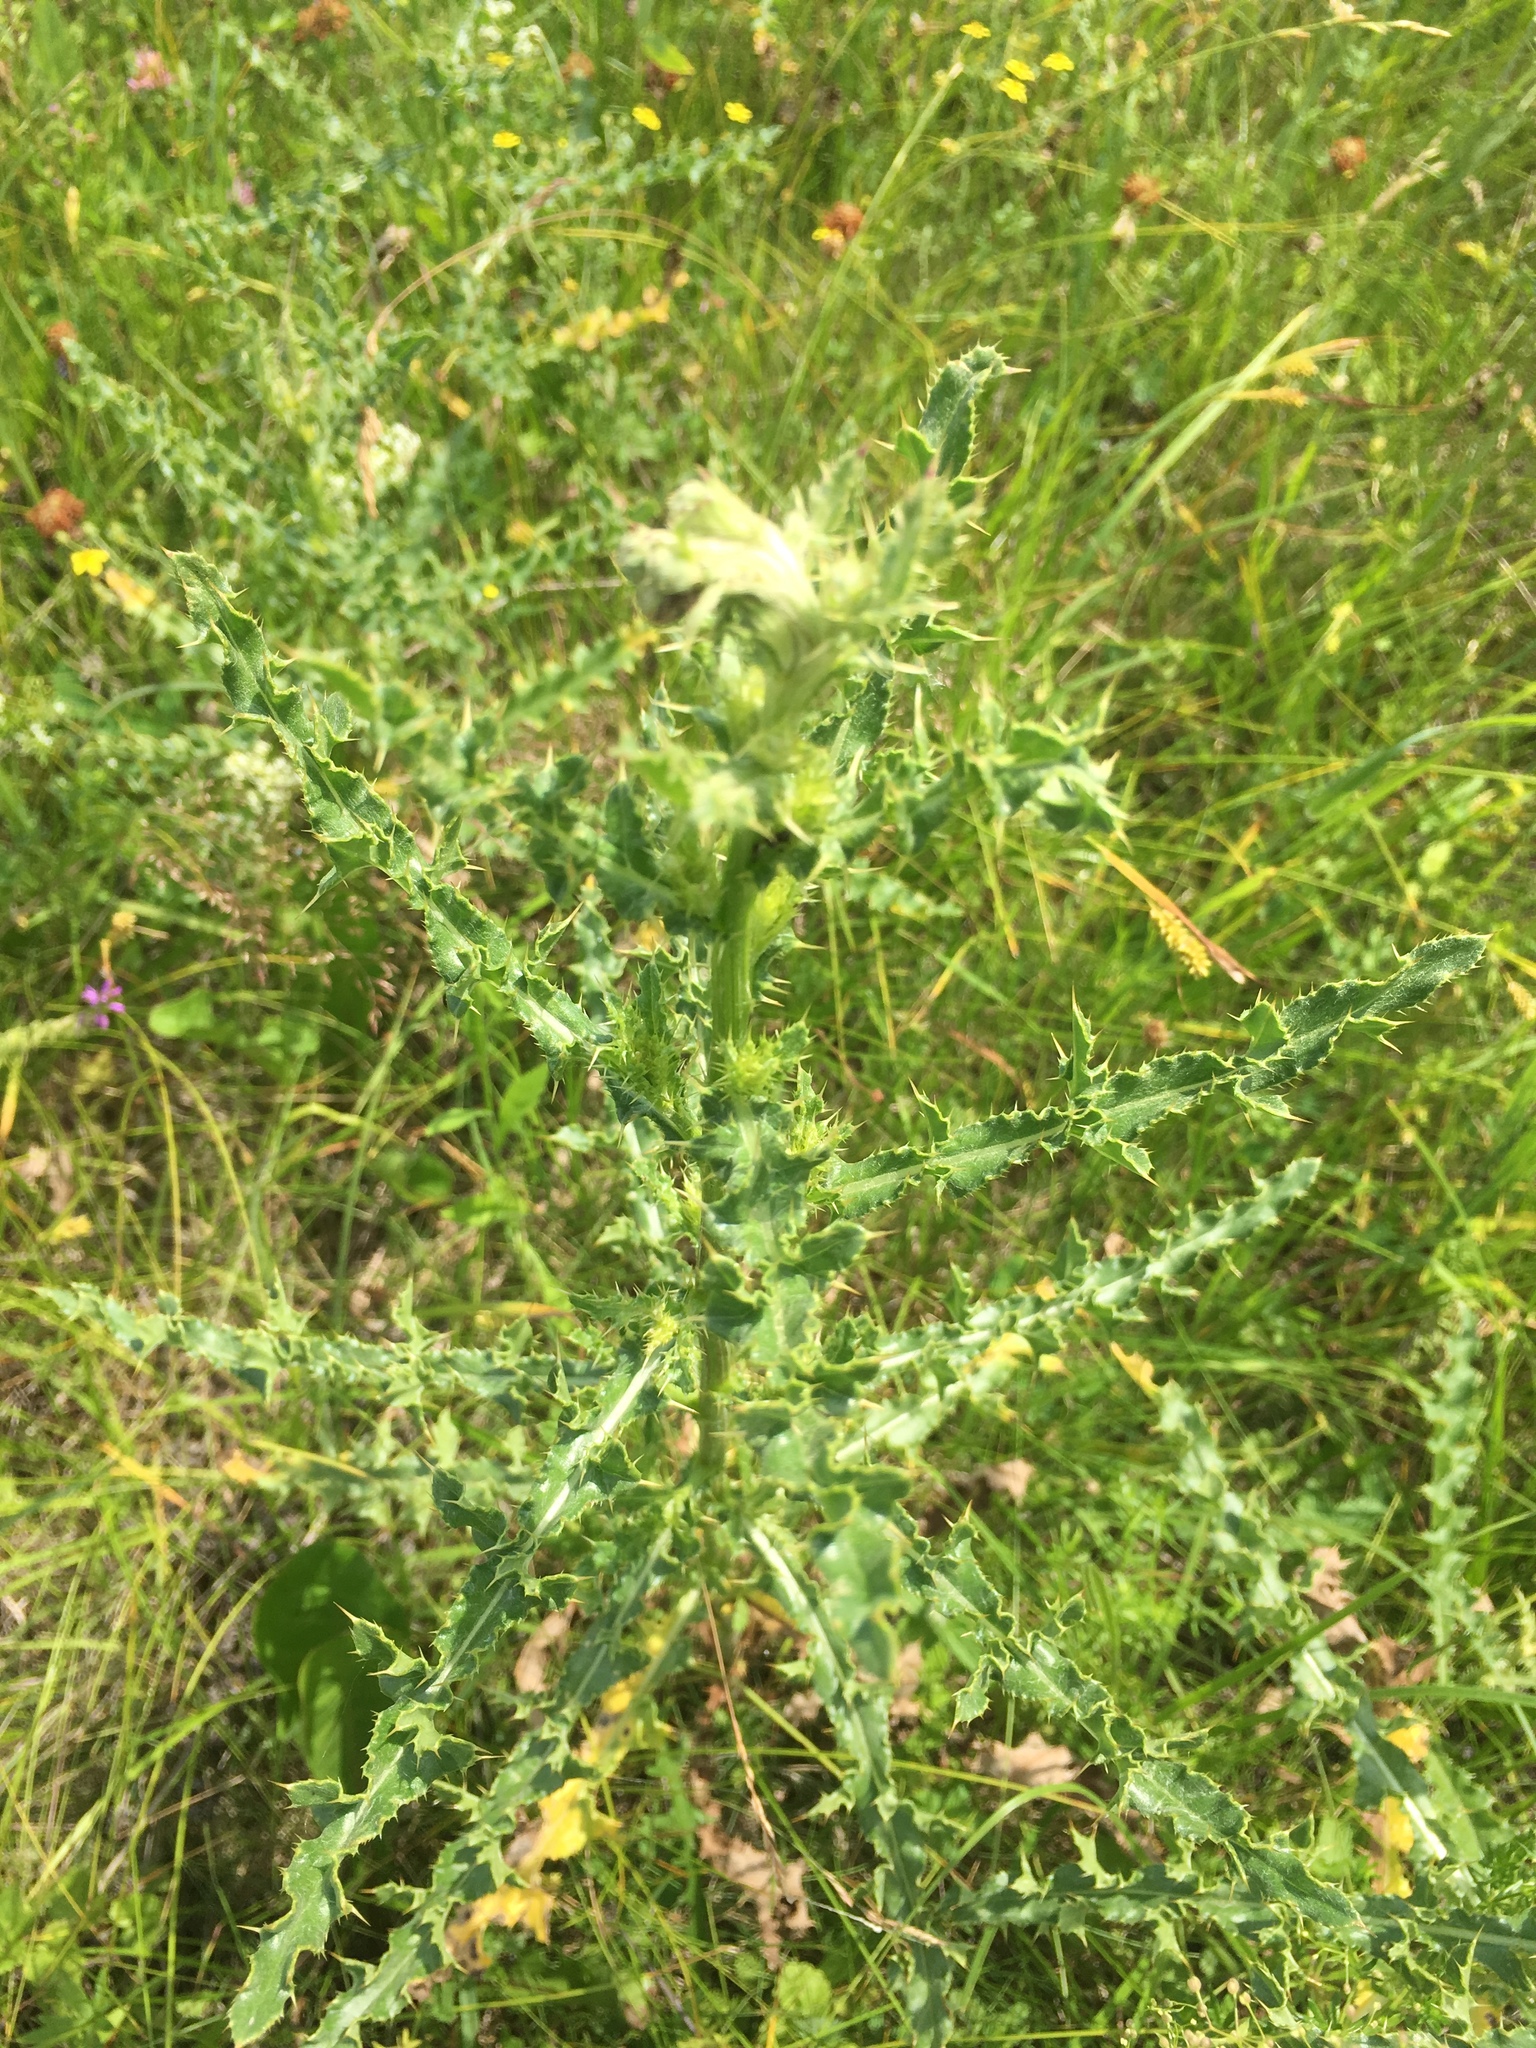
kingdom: Plantae
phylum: Tracheophyta
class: Magnoliopsida
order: Asterales
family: Asteraceae
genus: Cirsium
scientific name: Cirsium arvense
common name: Creeping thistle
